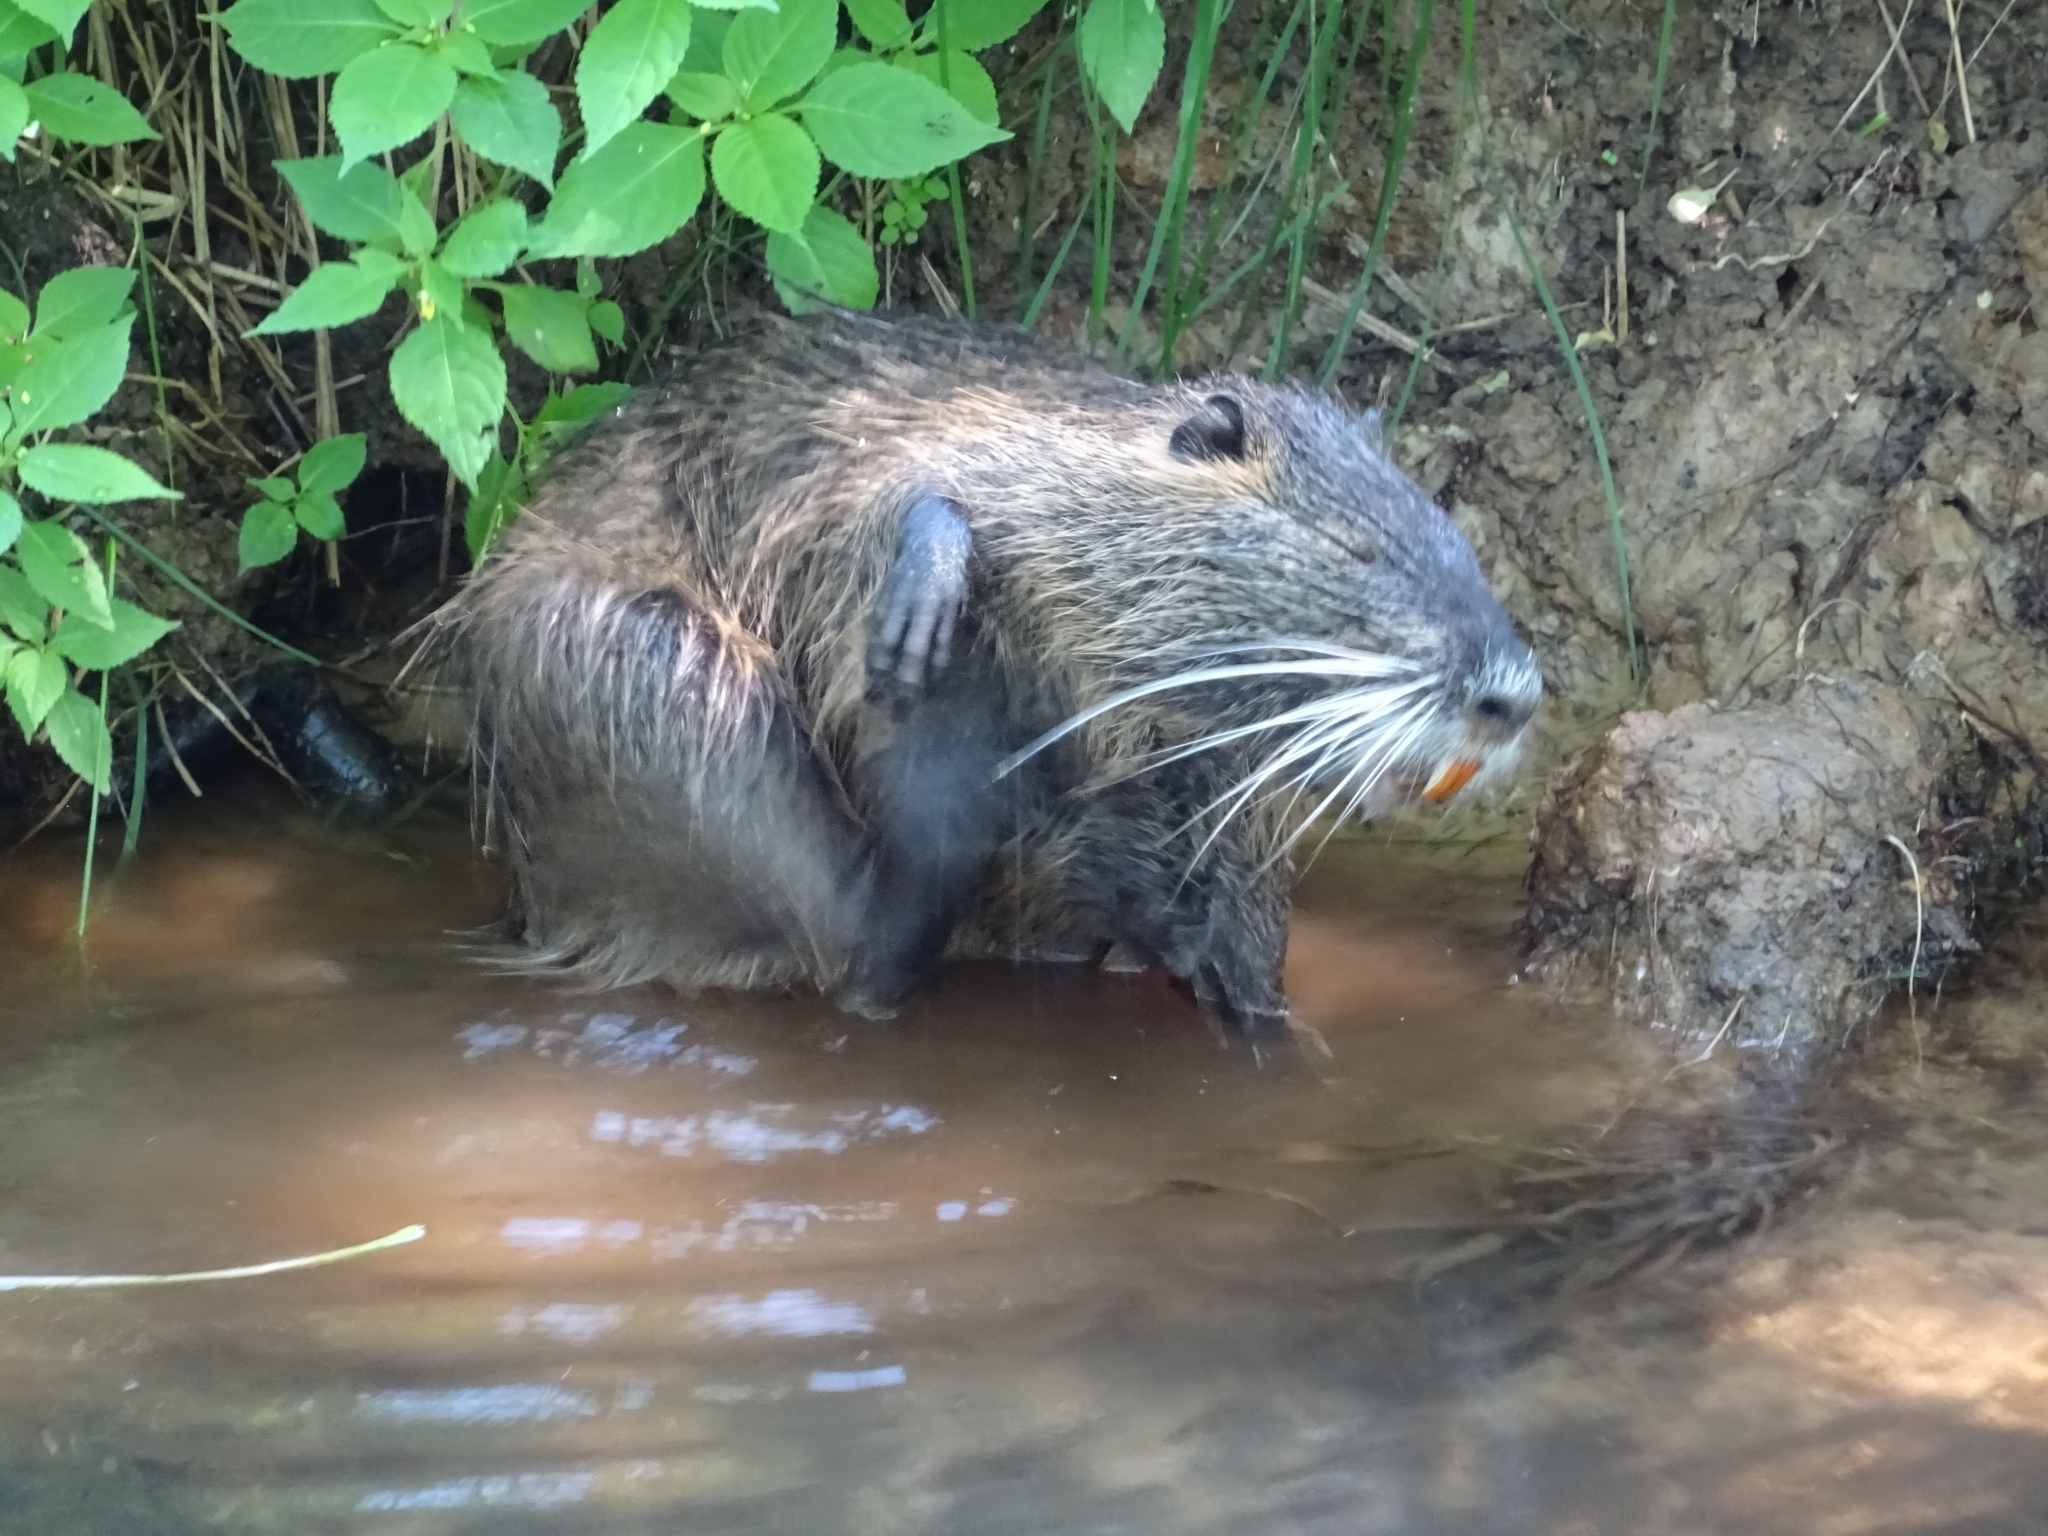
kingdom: Animalia
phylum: Chordata
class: Mammalia
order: Rodentia
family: Myocastoridae
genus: Myocastor
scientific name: Myocastor coypus
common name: Coypu
